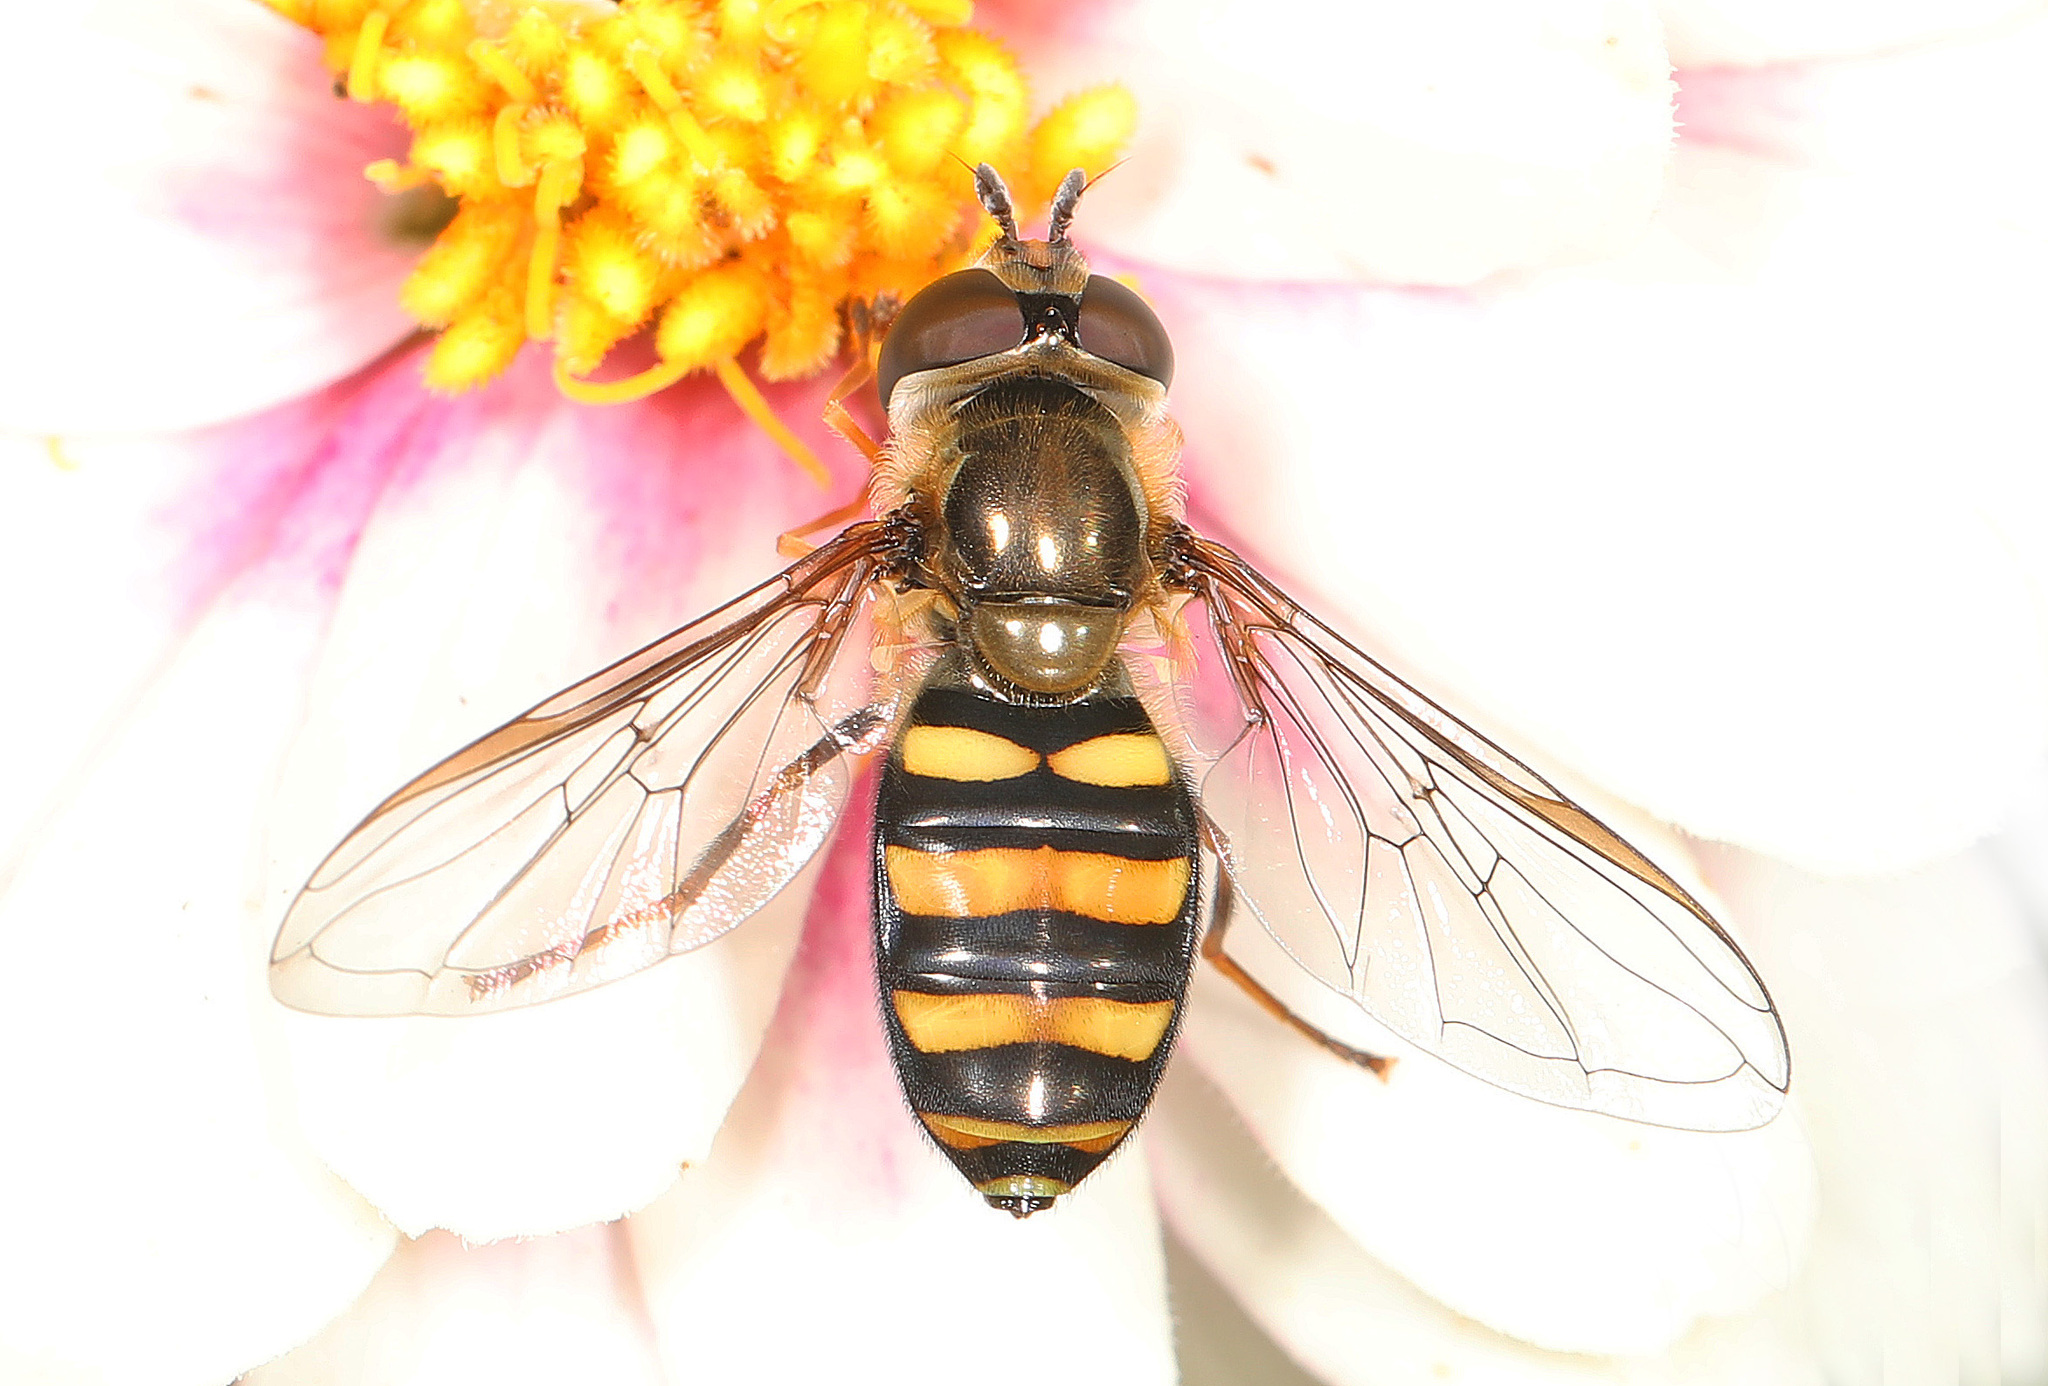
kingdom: Animalia
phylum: Arthropoda
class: Insecta
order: Diptera
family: Syrphidae
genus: Eupeodes
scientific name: Eupeodes
